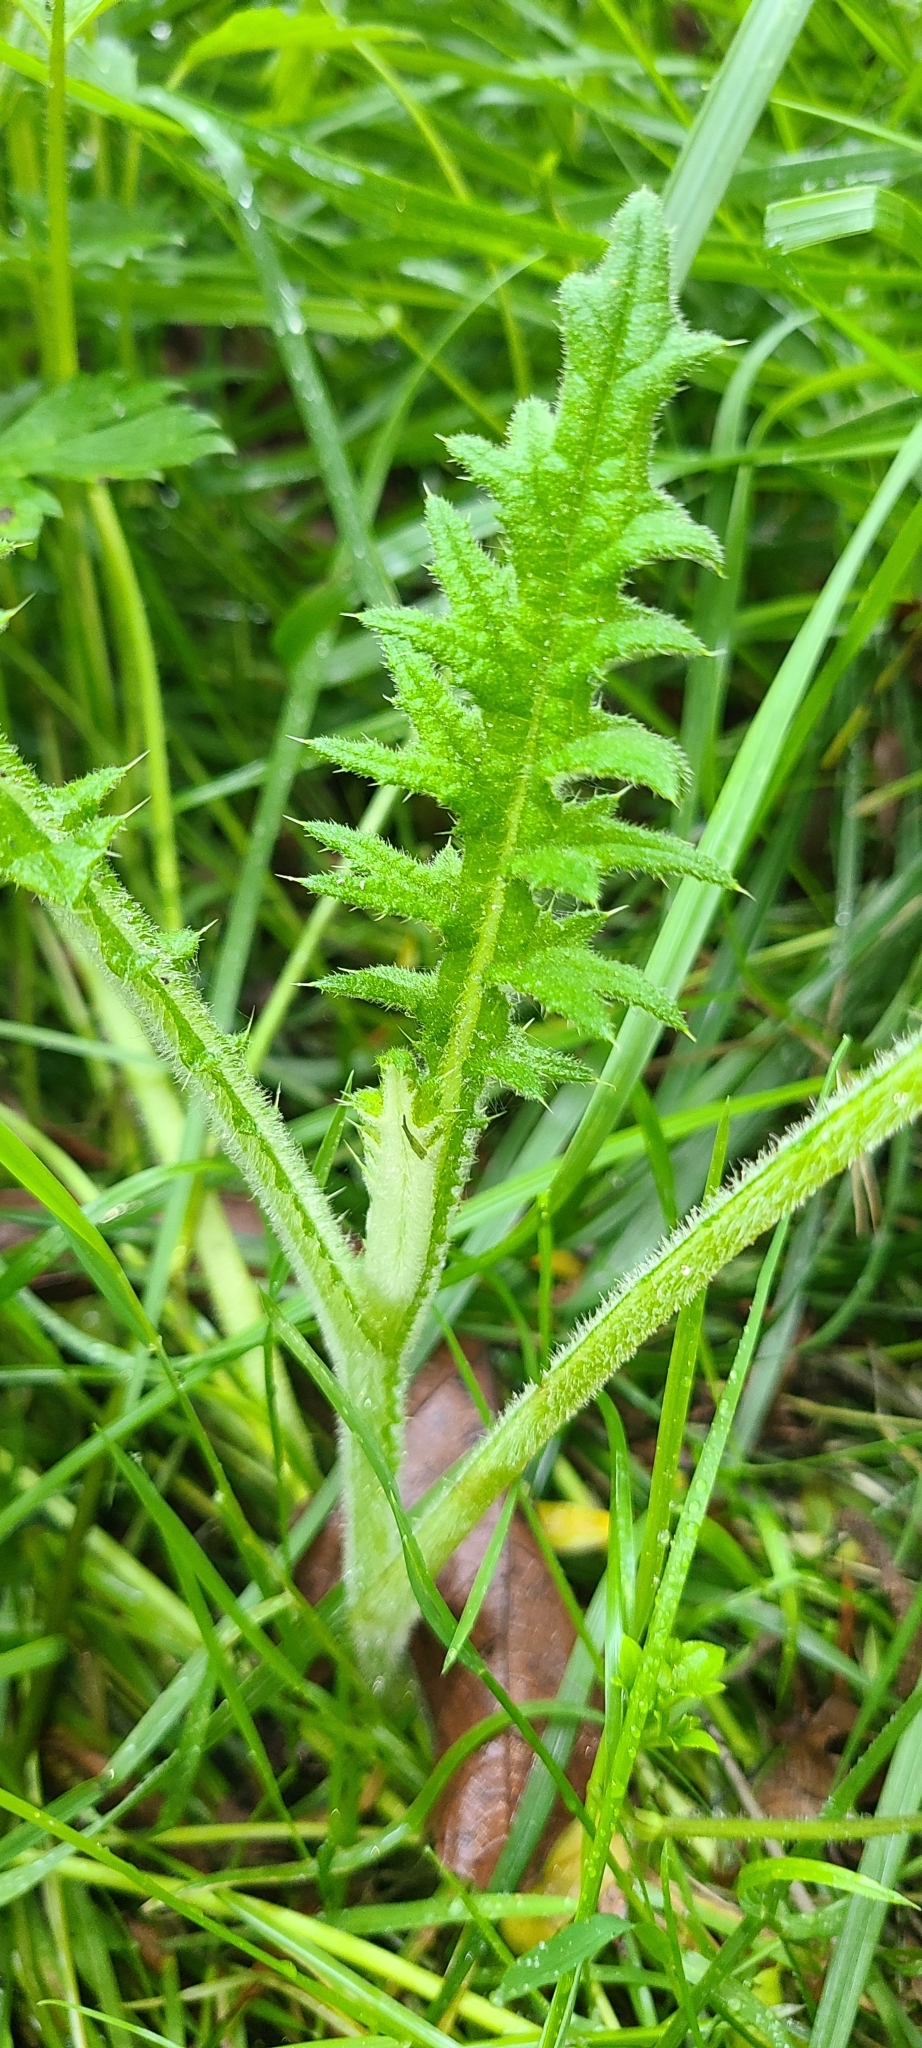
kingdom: Plantae
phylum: Tracheophyta
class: Magnoliopsida
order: Asterales
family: Asteraceae
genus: Cirsium
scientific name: Cirsium vulgare
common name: Bull thistle
